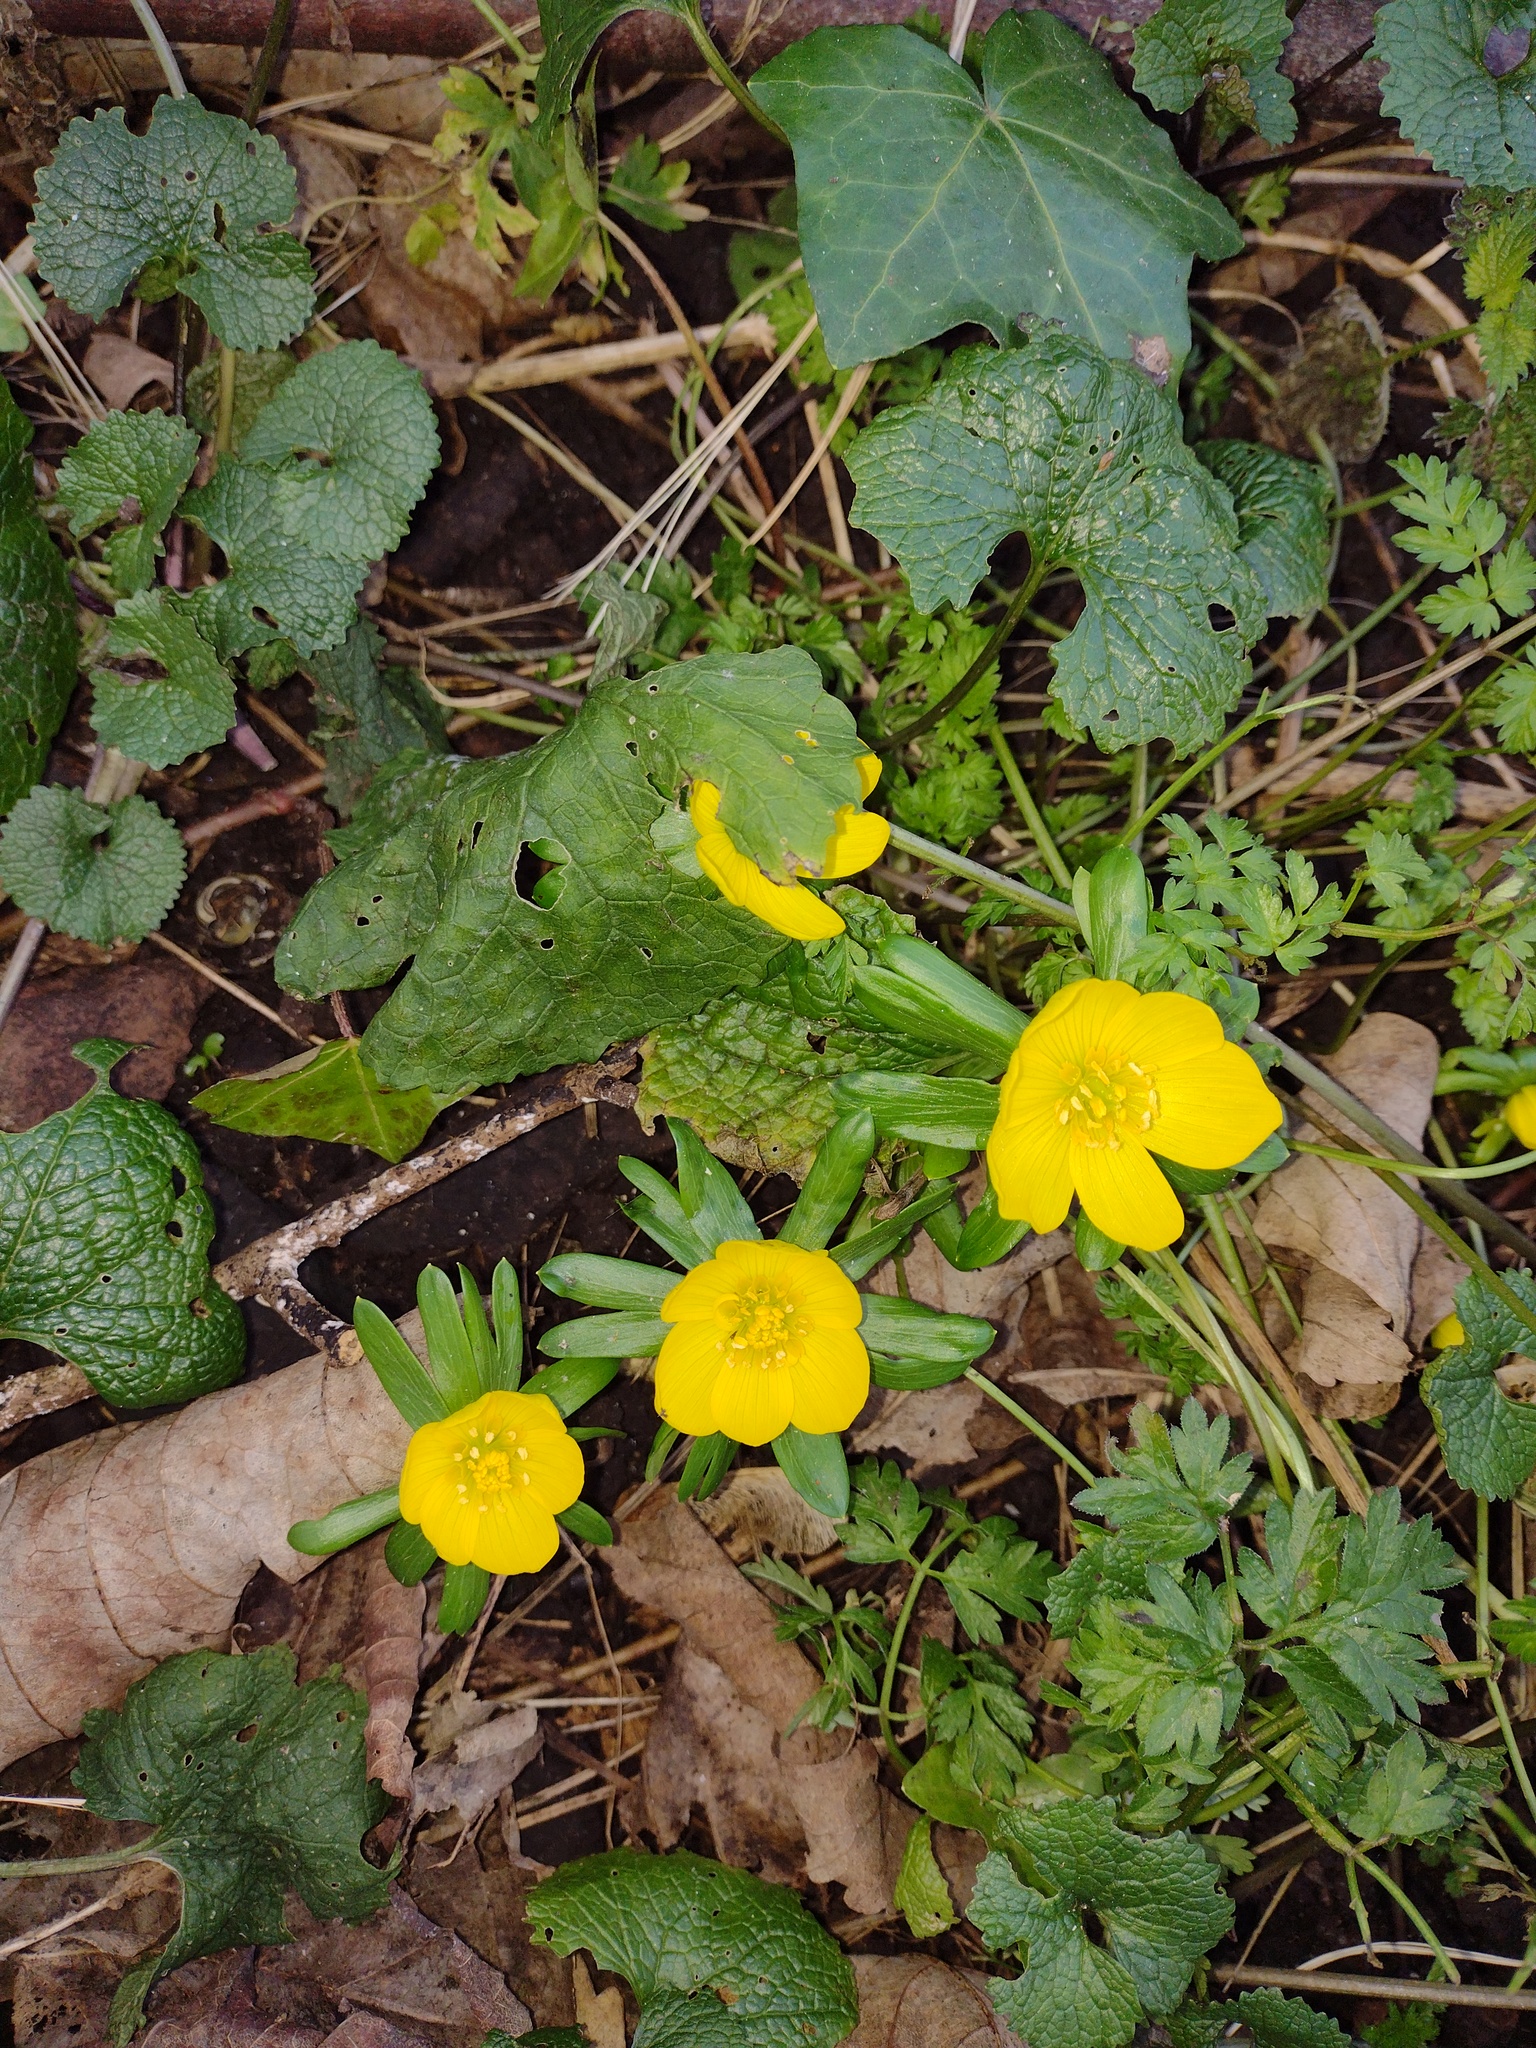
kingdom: Plantae
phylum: Tracheophyta
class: Magnoliopsida
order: Ranunculales
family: Ranunculaceae
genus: Eranthis
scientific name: Eranthis hyemalis
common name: Winter aconite
